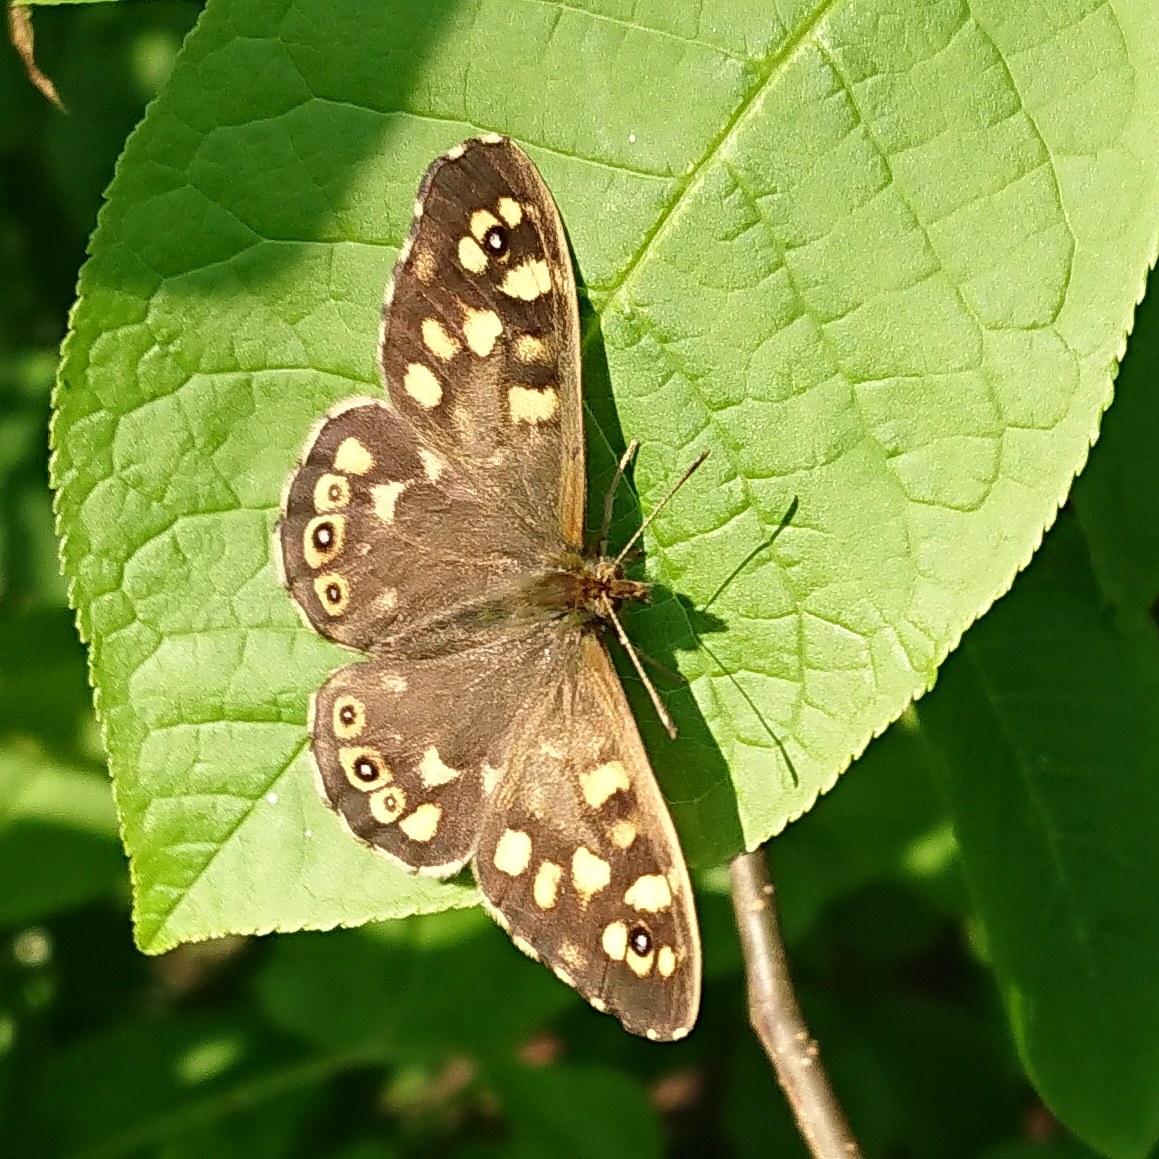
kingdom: Animalia
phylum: Arthropoda
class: Insecta
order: Lepidoptera
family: Nymphalidae
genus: Pararge
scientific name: Pararge aegeria
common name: Speckled wood
